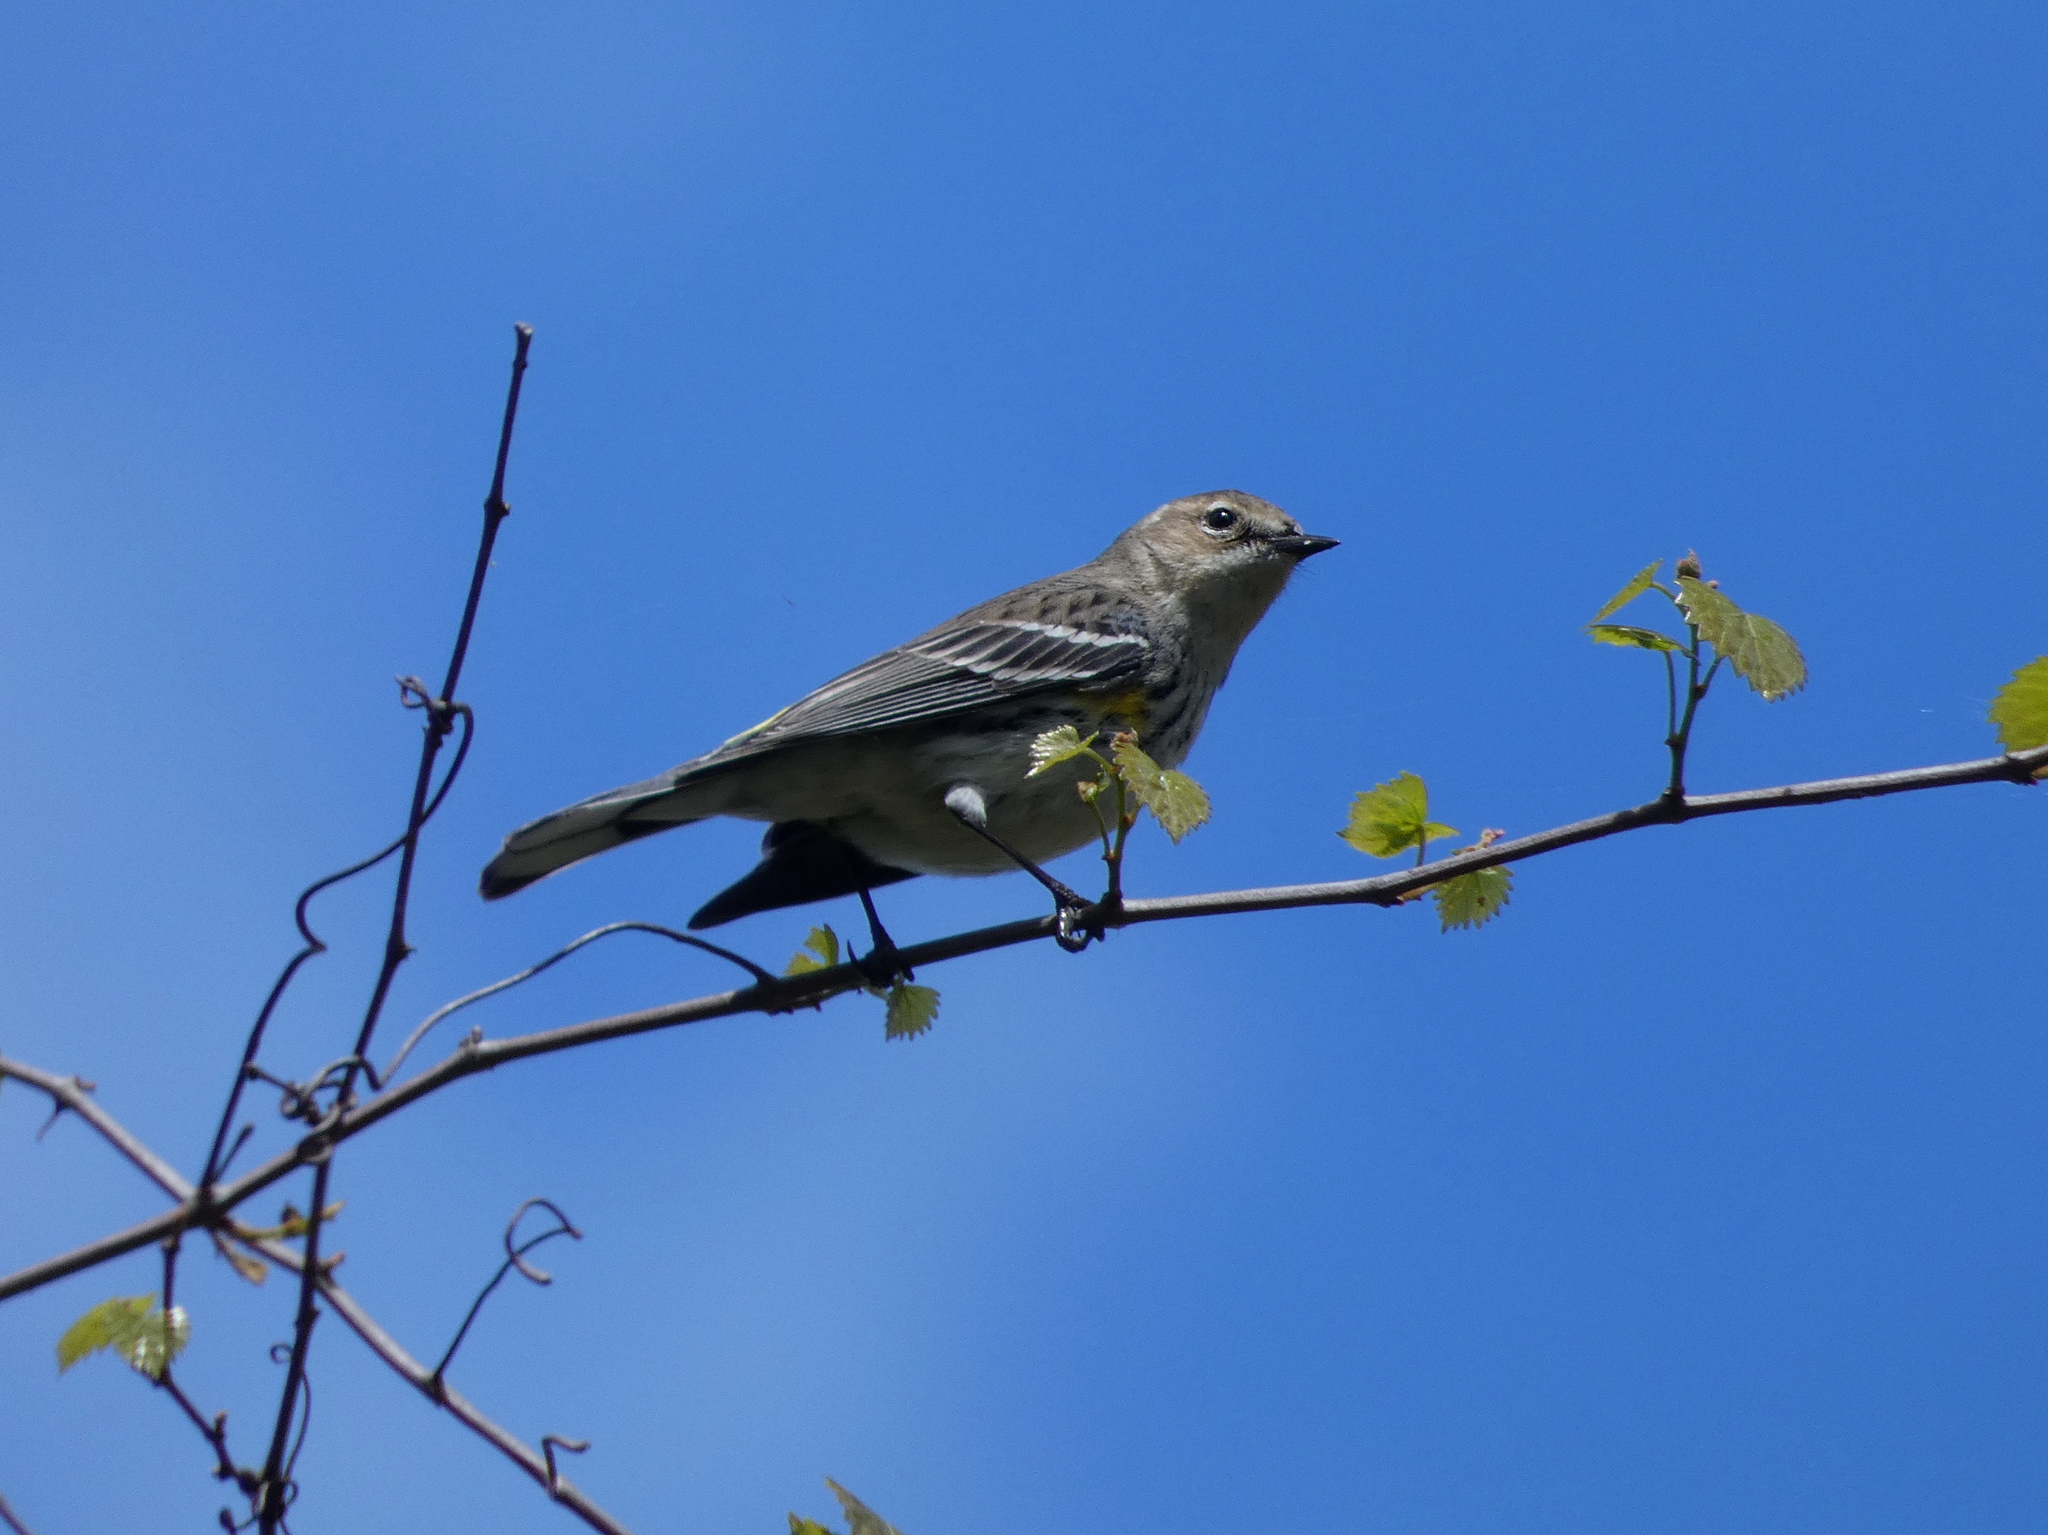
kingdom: Animalia
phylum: Chordata
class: Aves
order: Passeriformes
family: Parulidae
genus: Setophaga
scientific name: Setophaga coronata
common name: Myrtle warbler
